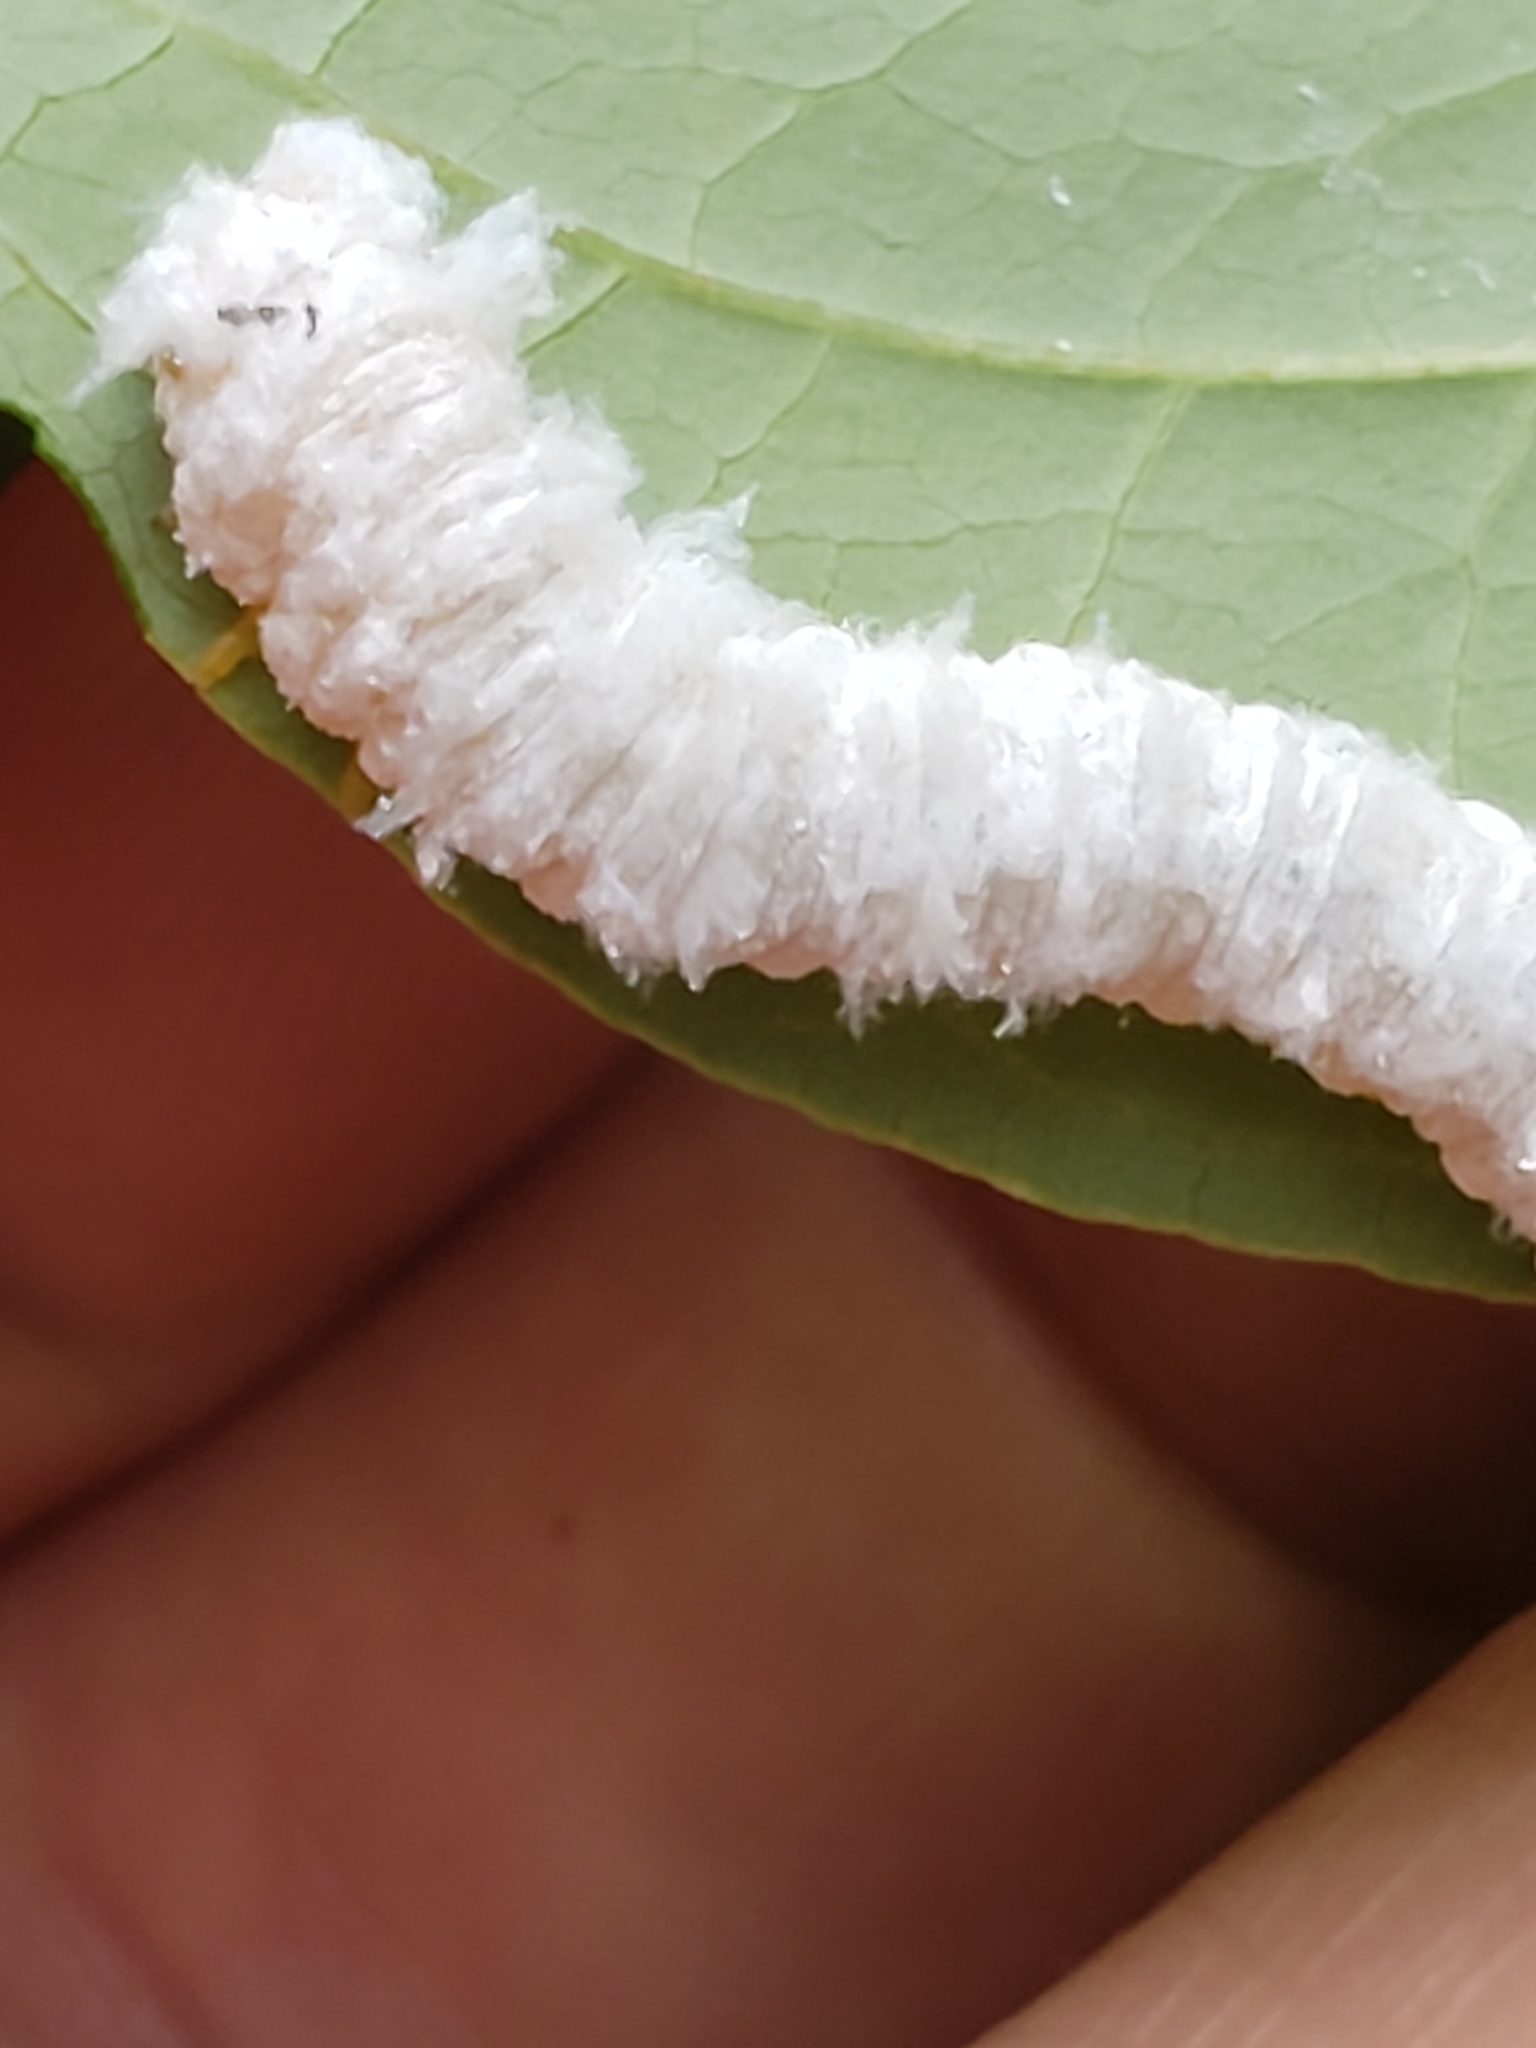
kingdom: Animalia
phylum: Arthropoda
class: Insecta
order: Hymenoptera
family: Tenthredinidae
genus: Macremphytus
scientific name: Macremphytus testaceus
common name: Dogwood sawfly
